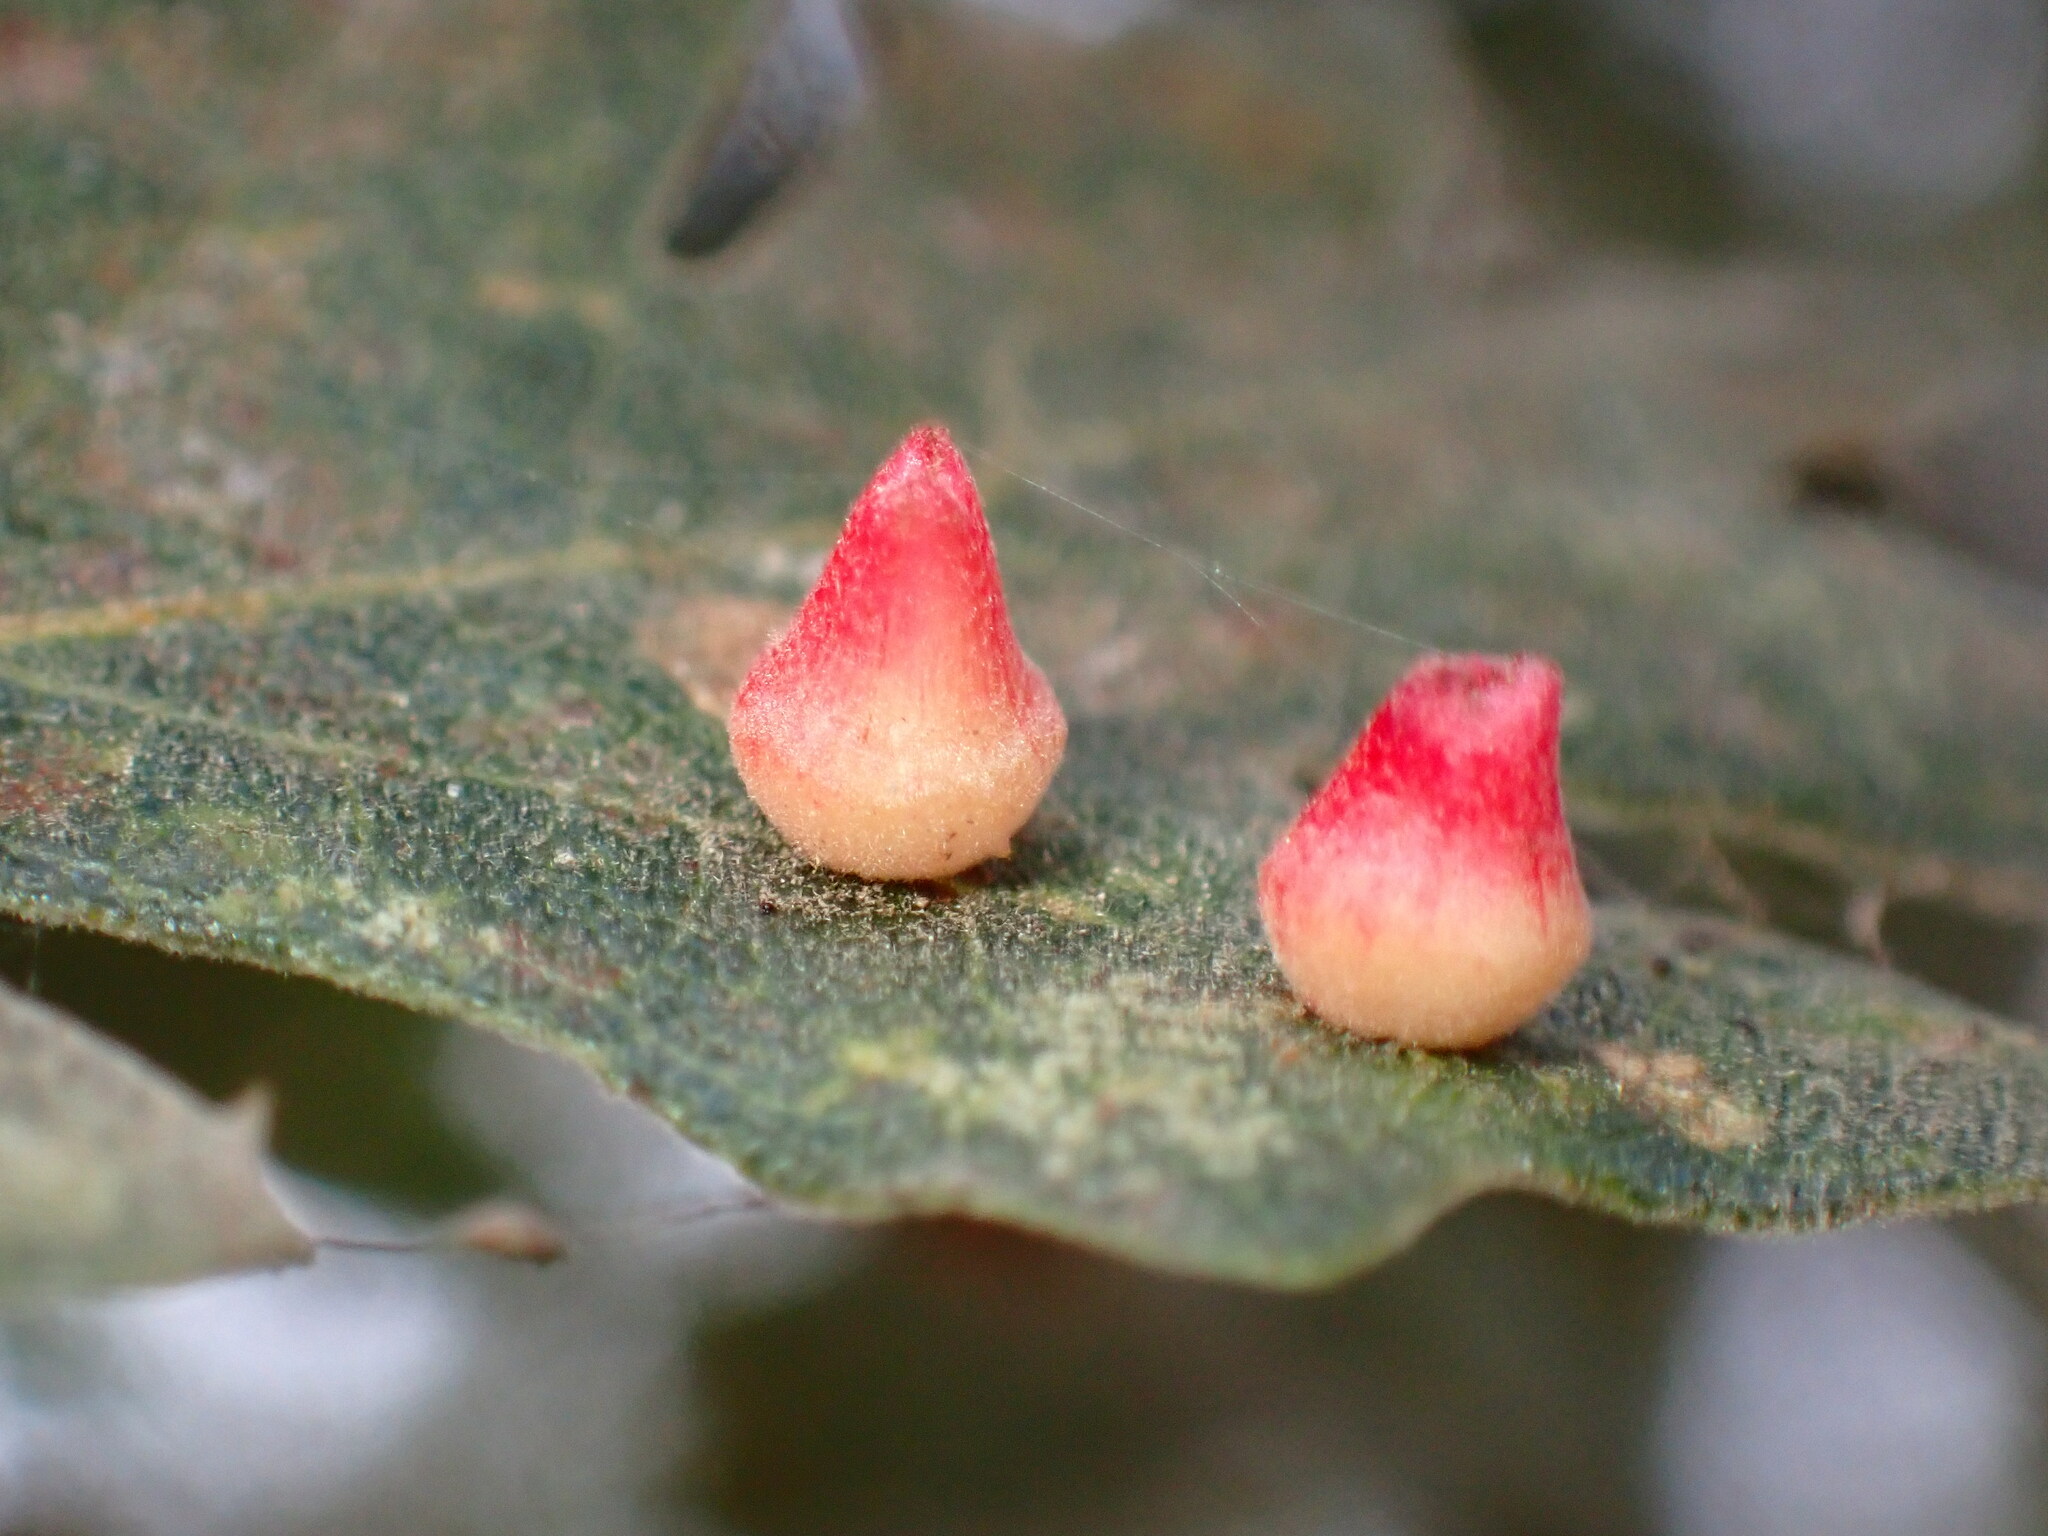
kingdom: Animalia
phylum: Arthropoda
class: Insecta
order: Hymenoptera
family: Cynipidae
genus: Andricus
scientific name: Andricus
